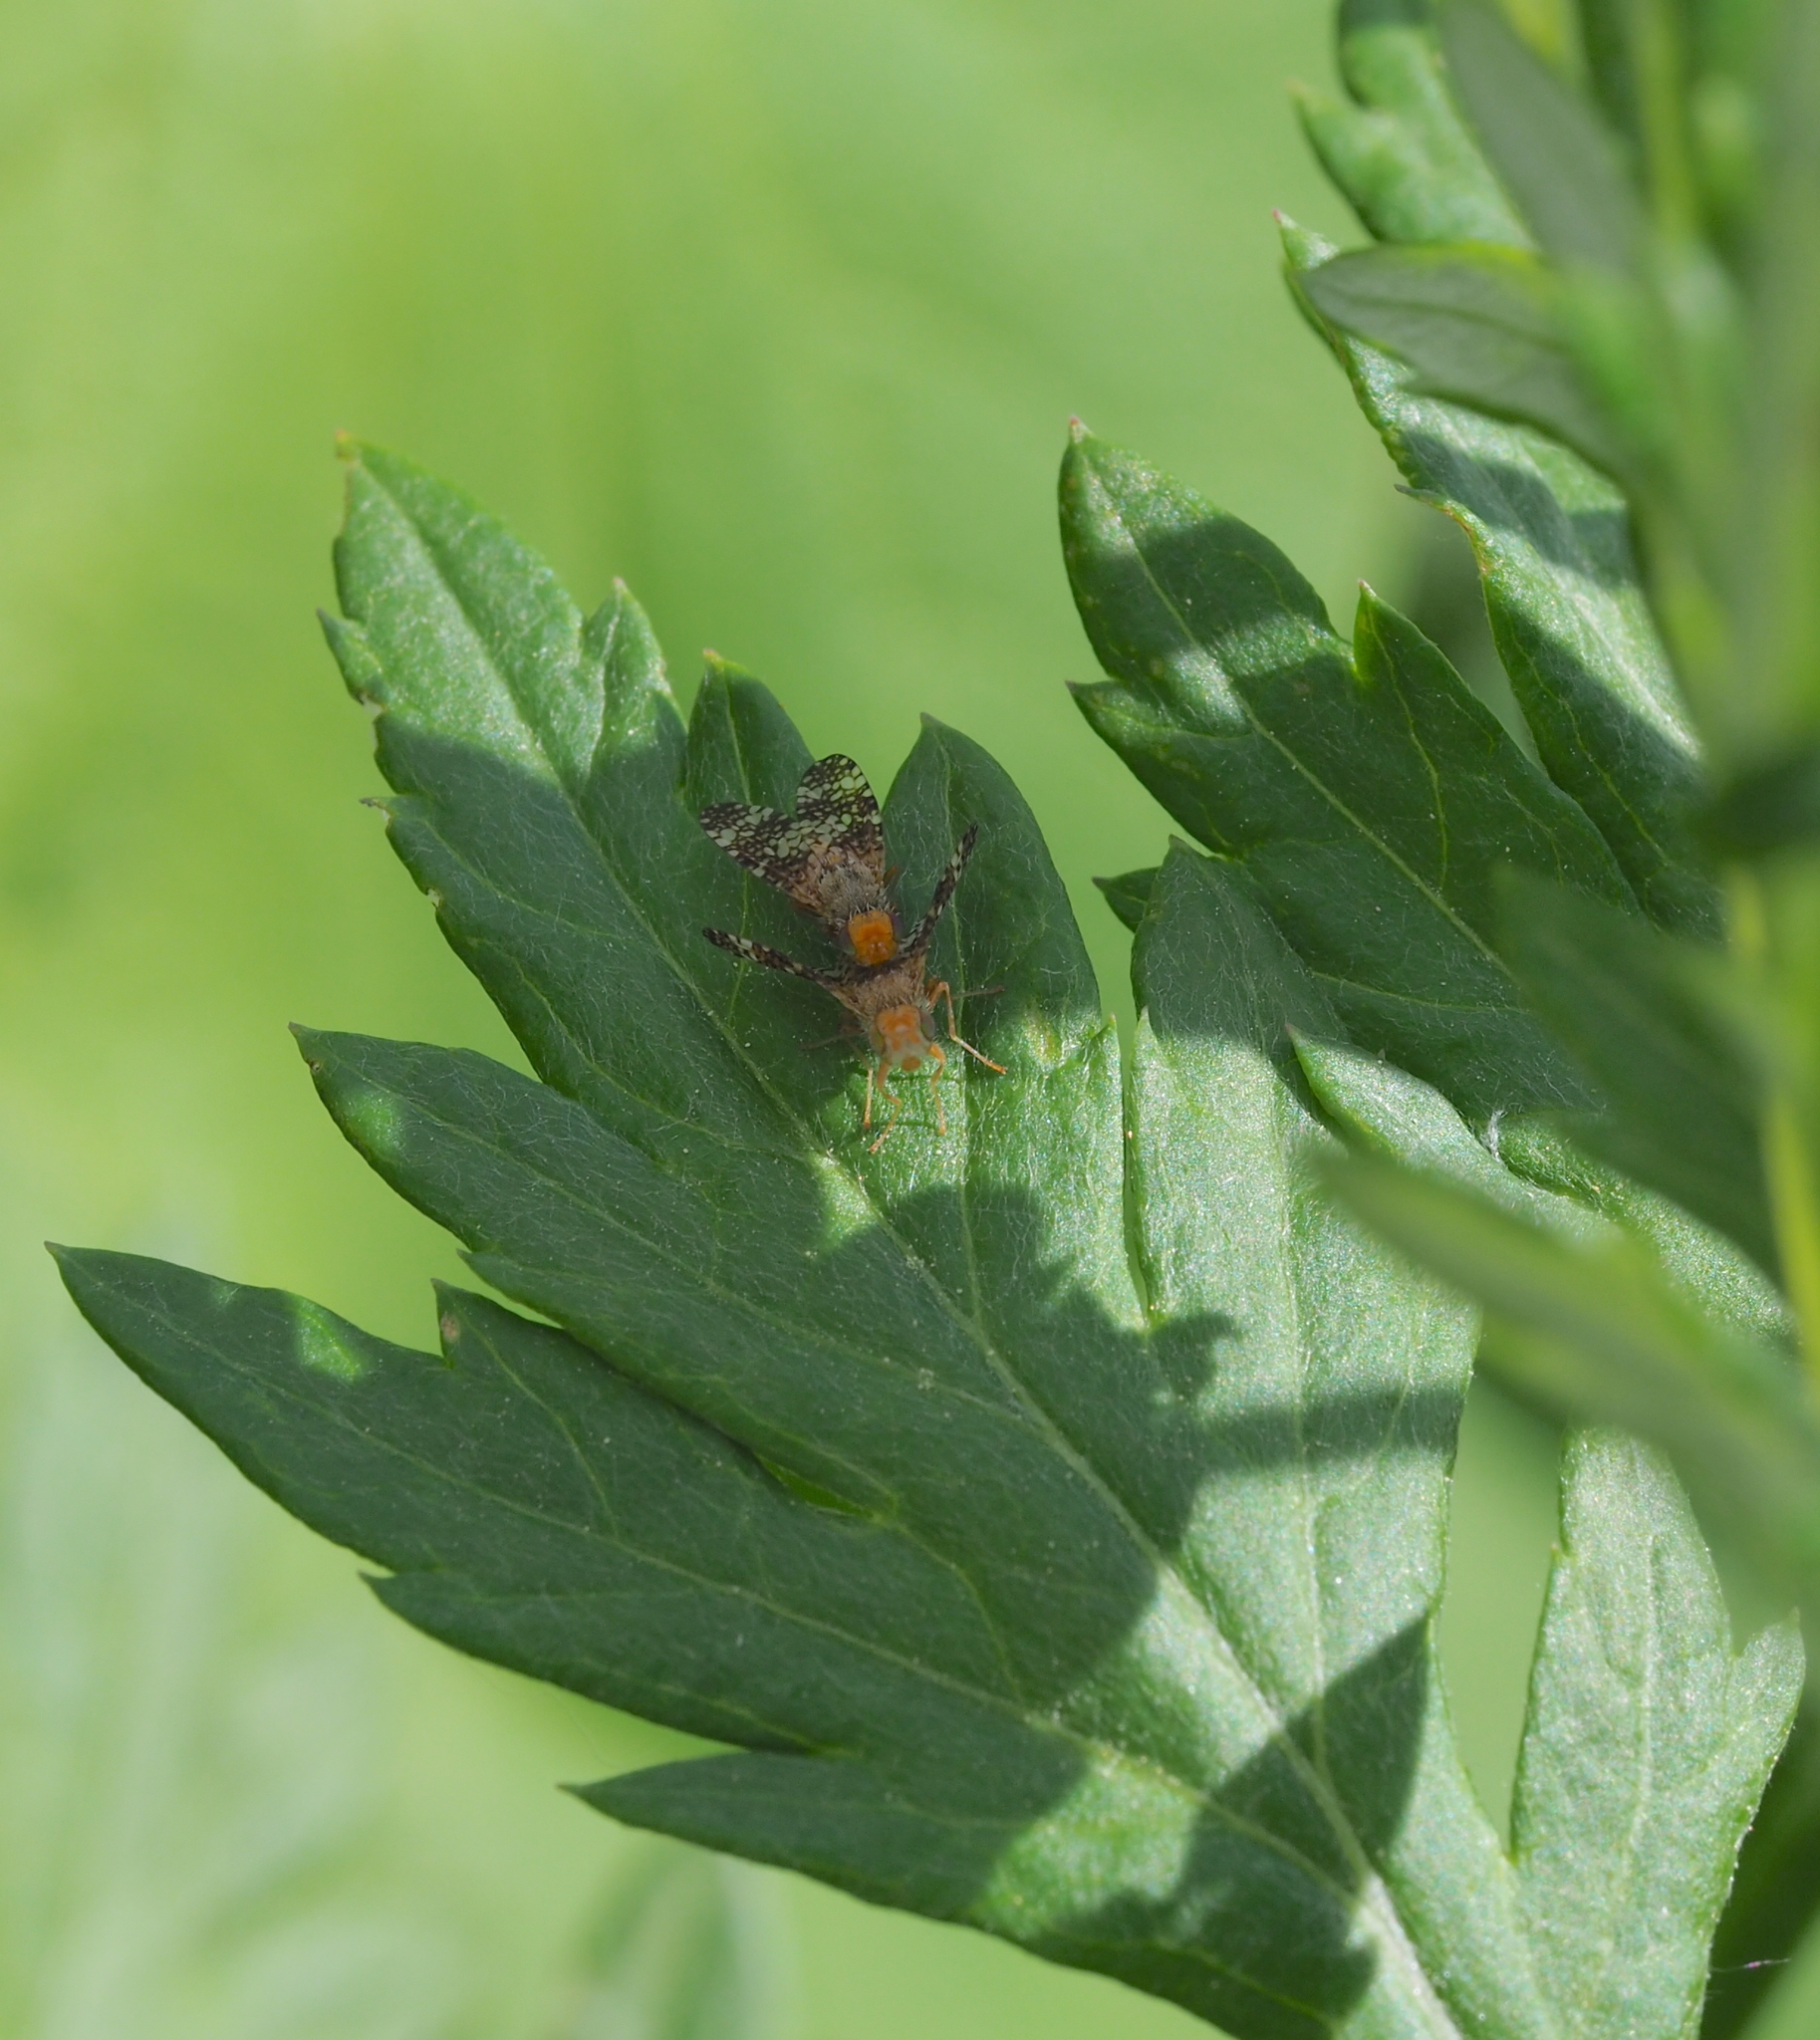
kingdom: Animalia
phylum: Arthropoda
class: Insecta
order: Diptera
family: Tephritidae
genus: Oxyna
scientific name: Oxyna parietina
